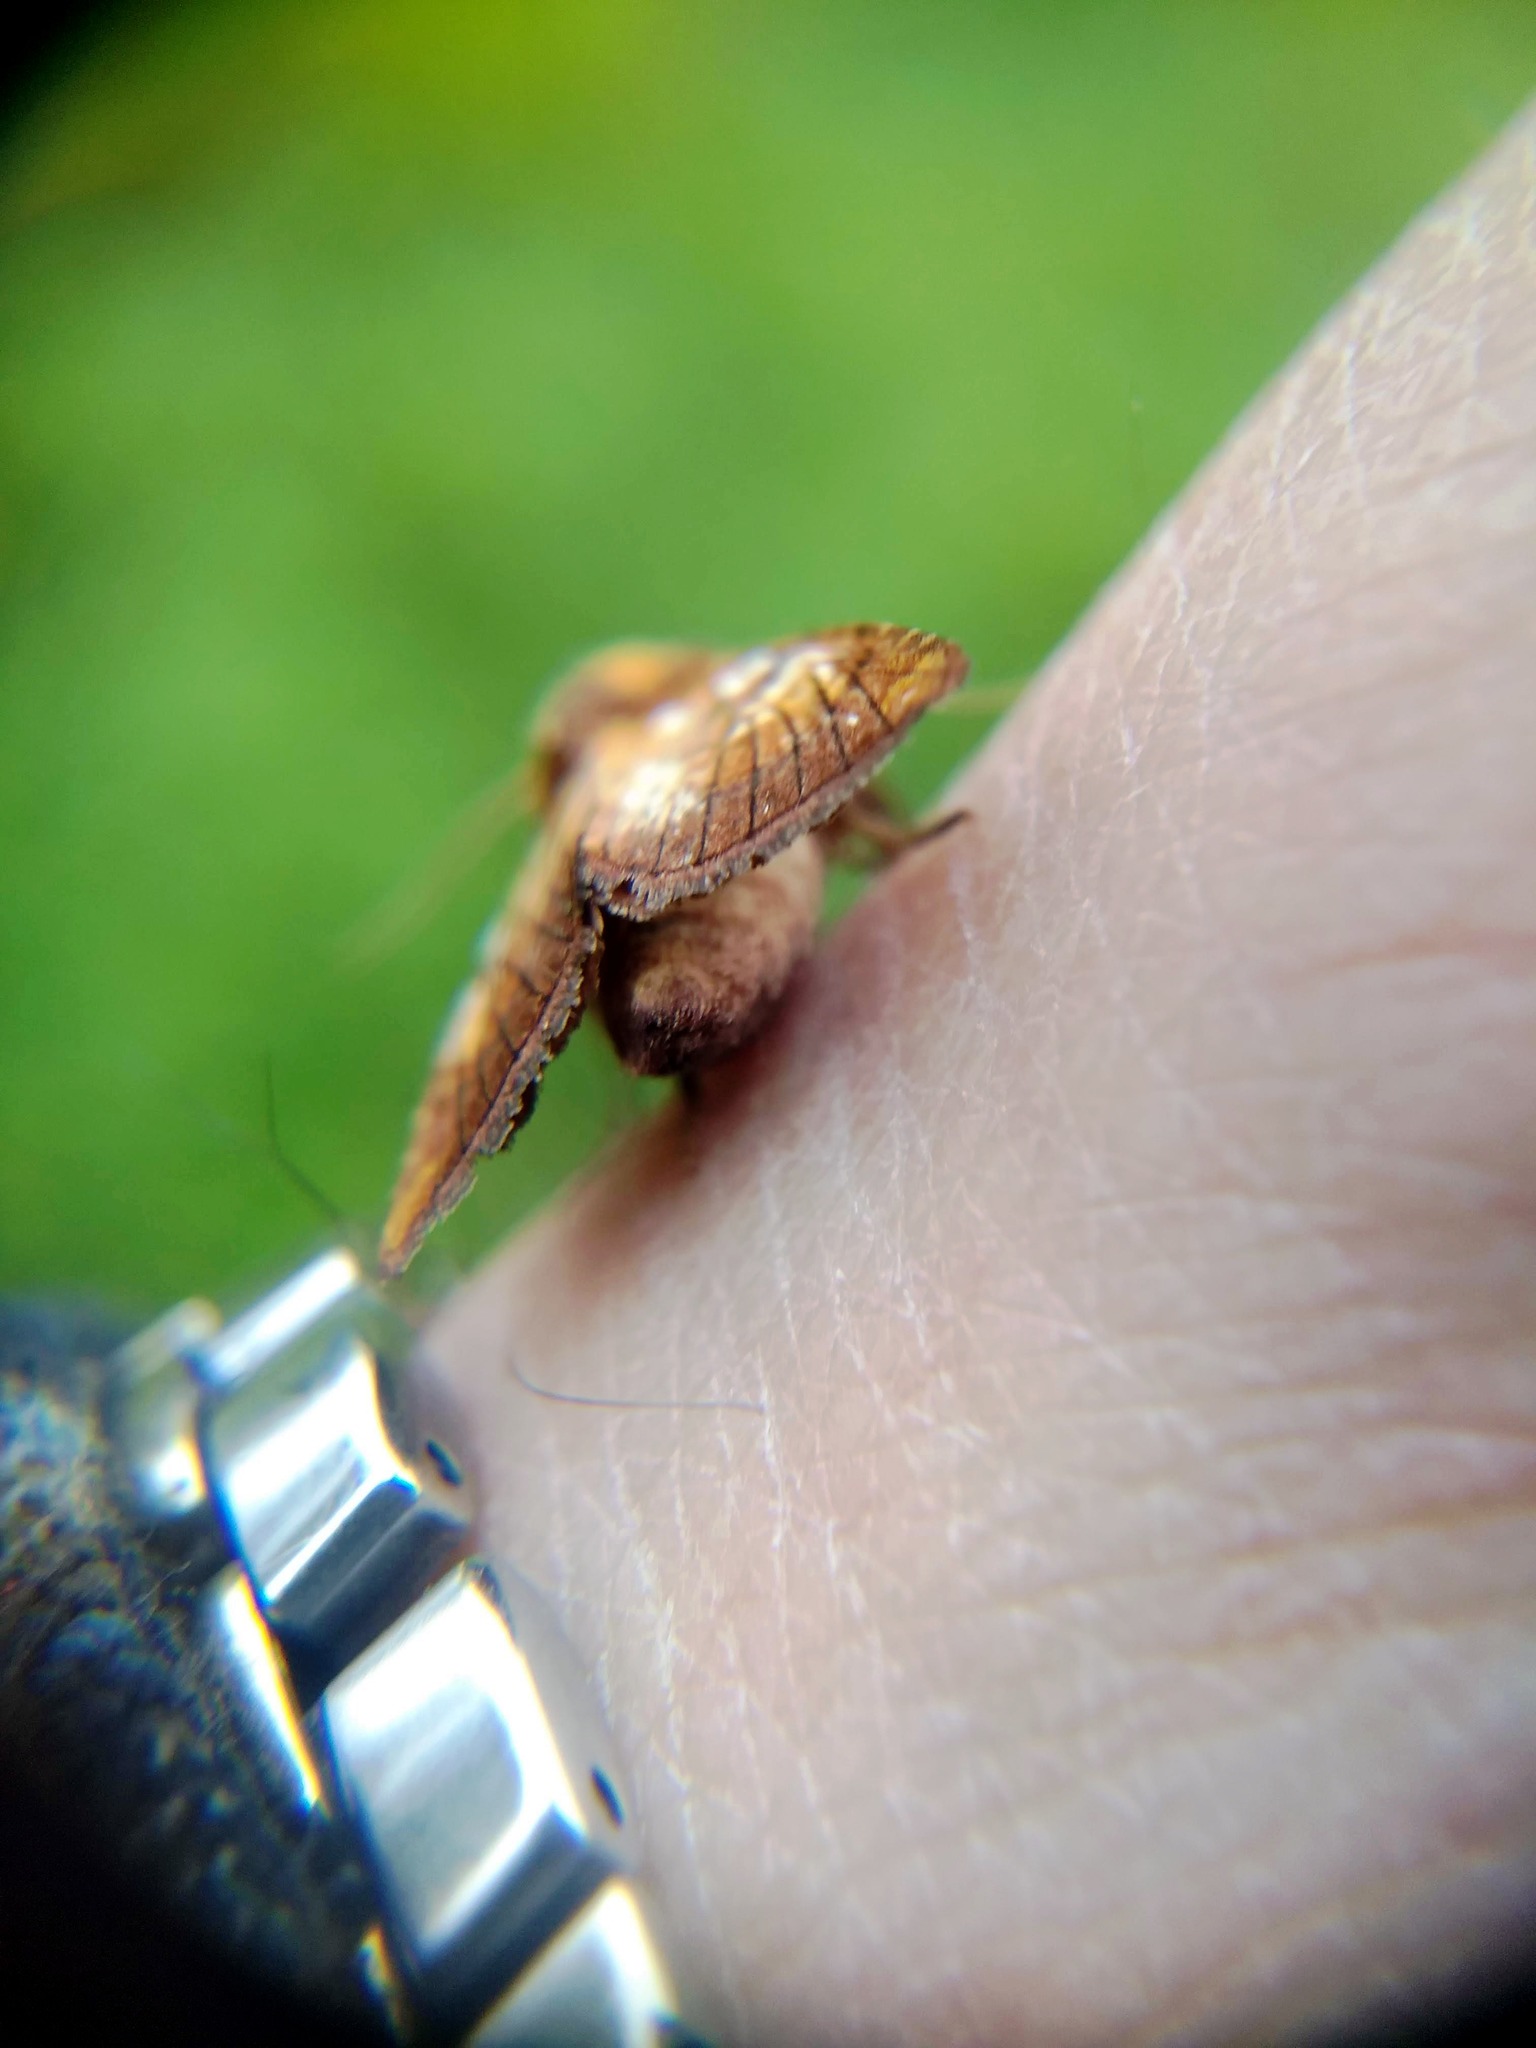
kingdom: Animalia
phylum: Arthropoda
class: Insecta
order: Lepidoptera
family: Noctuidae
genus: Papaipema
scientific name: Papaipema inquaesita
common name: Sensitive fern borer moth
